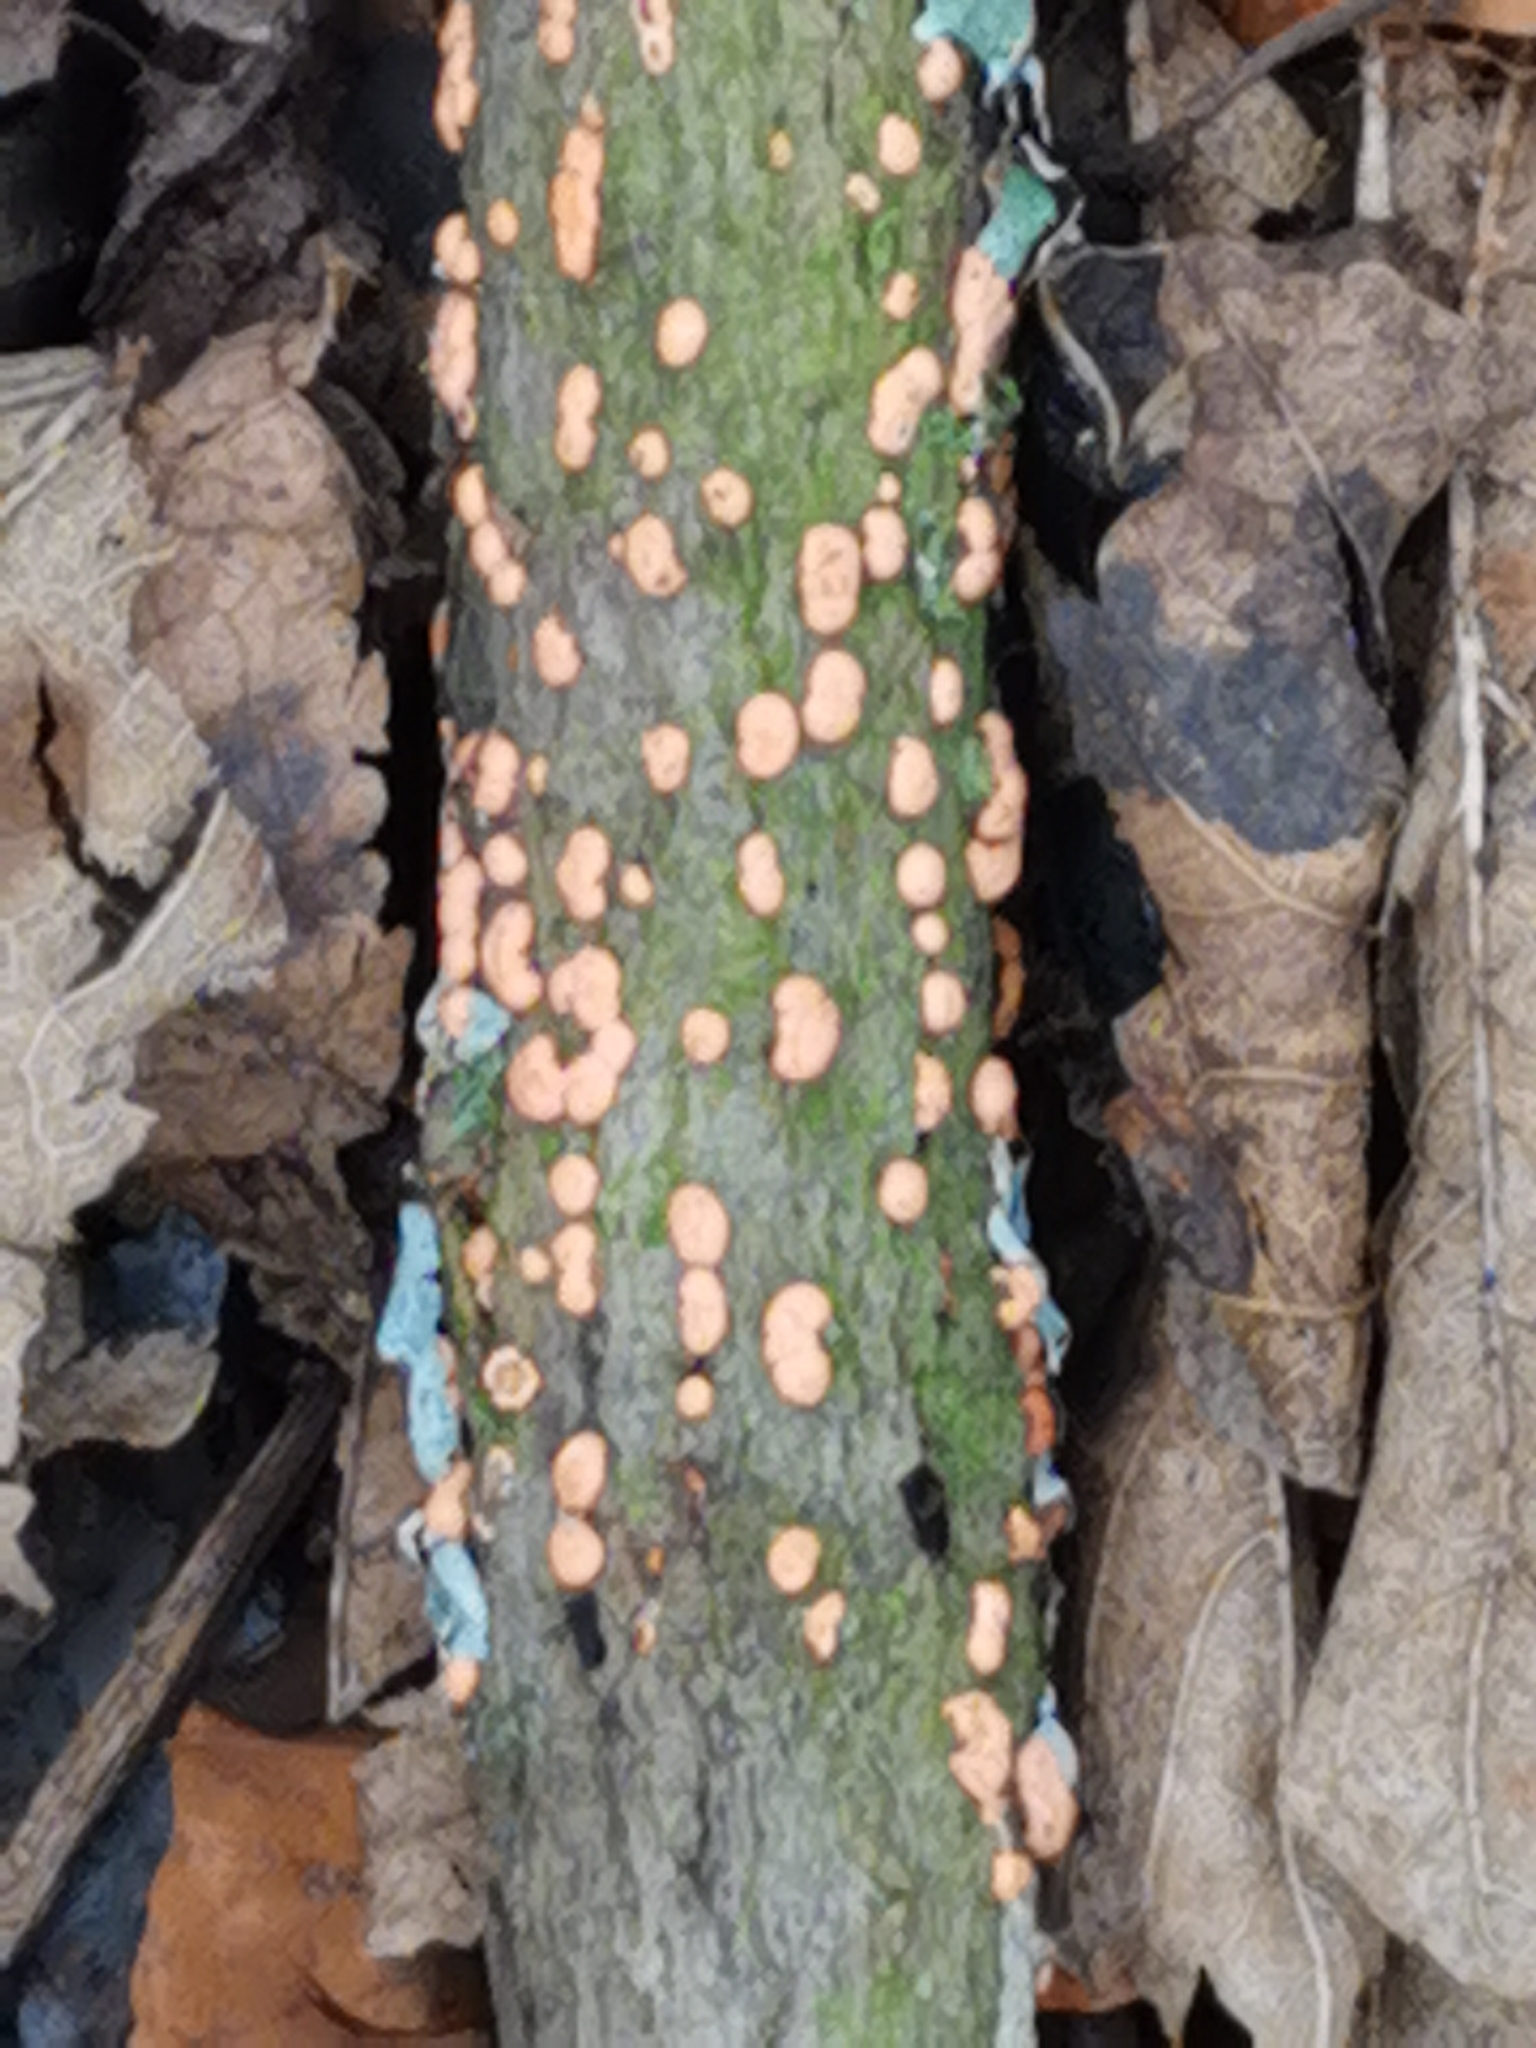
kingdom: Fungi
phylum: Ascomycota
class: Sordariomycetes
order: Hypocreales
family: Nectriaceae
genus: Nectria
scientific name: Nectria cinnabarina
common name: Coral spot
